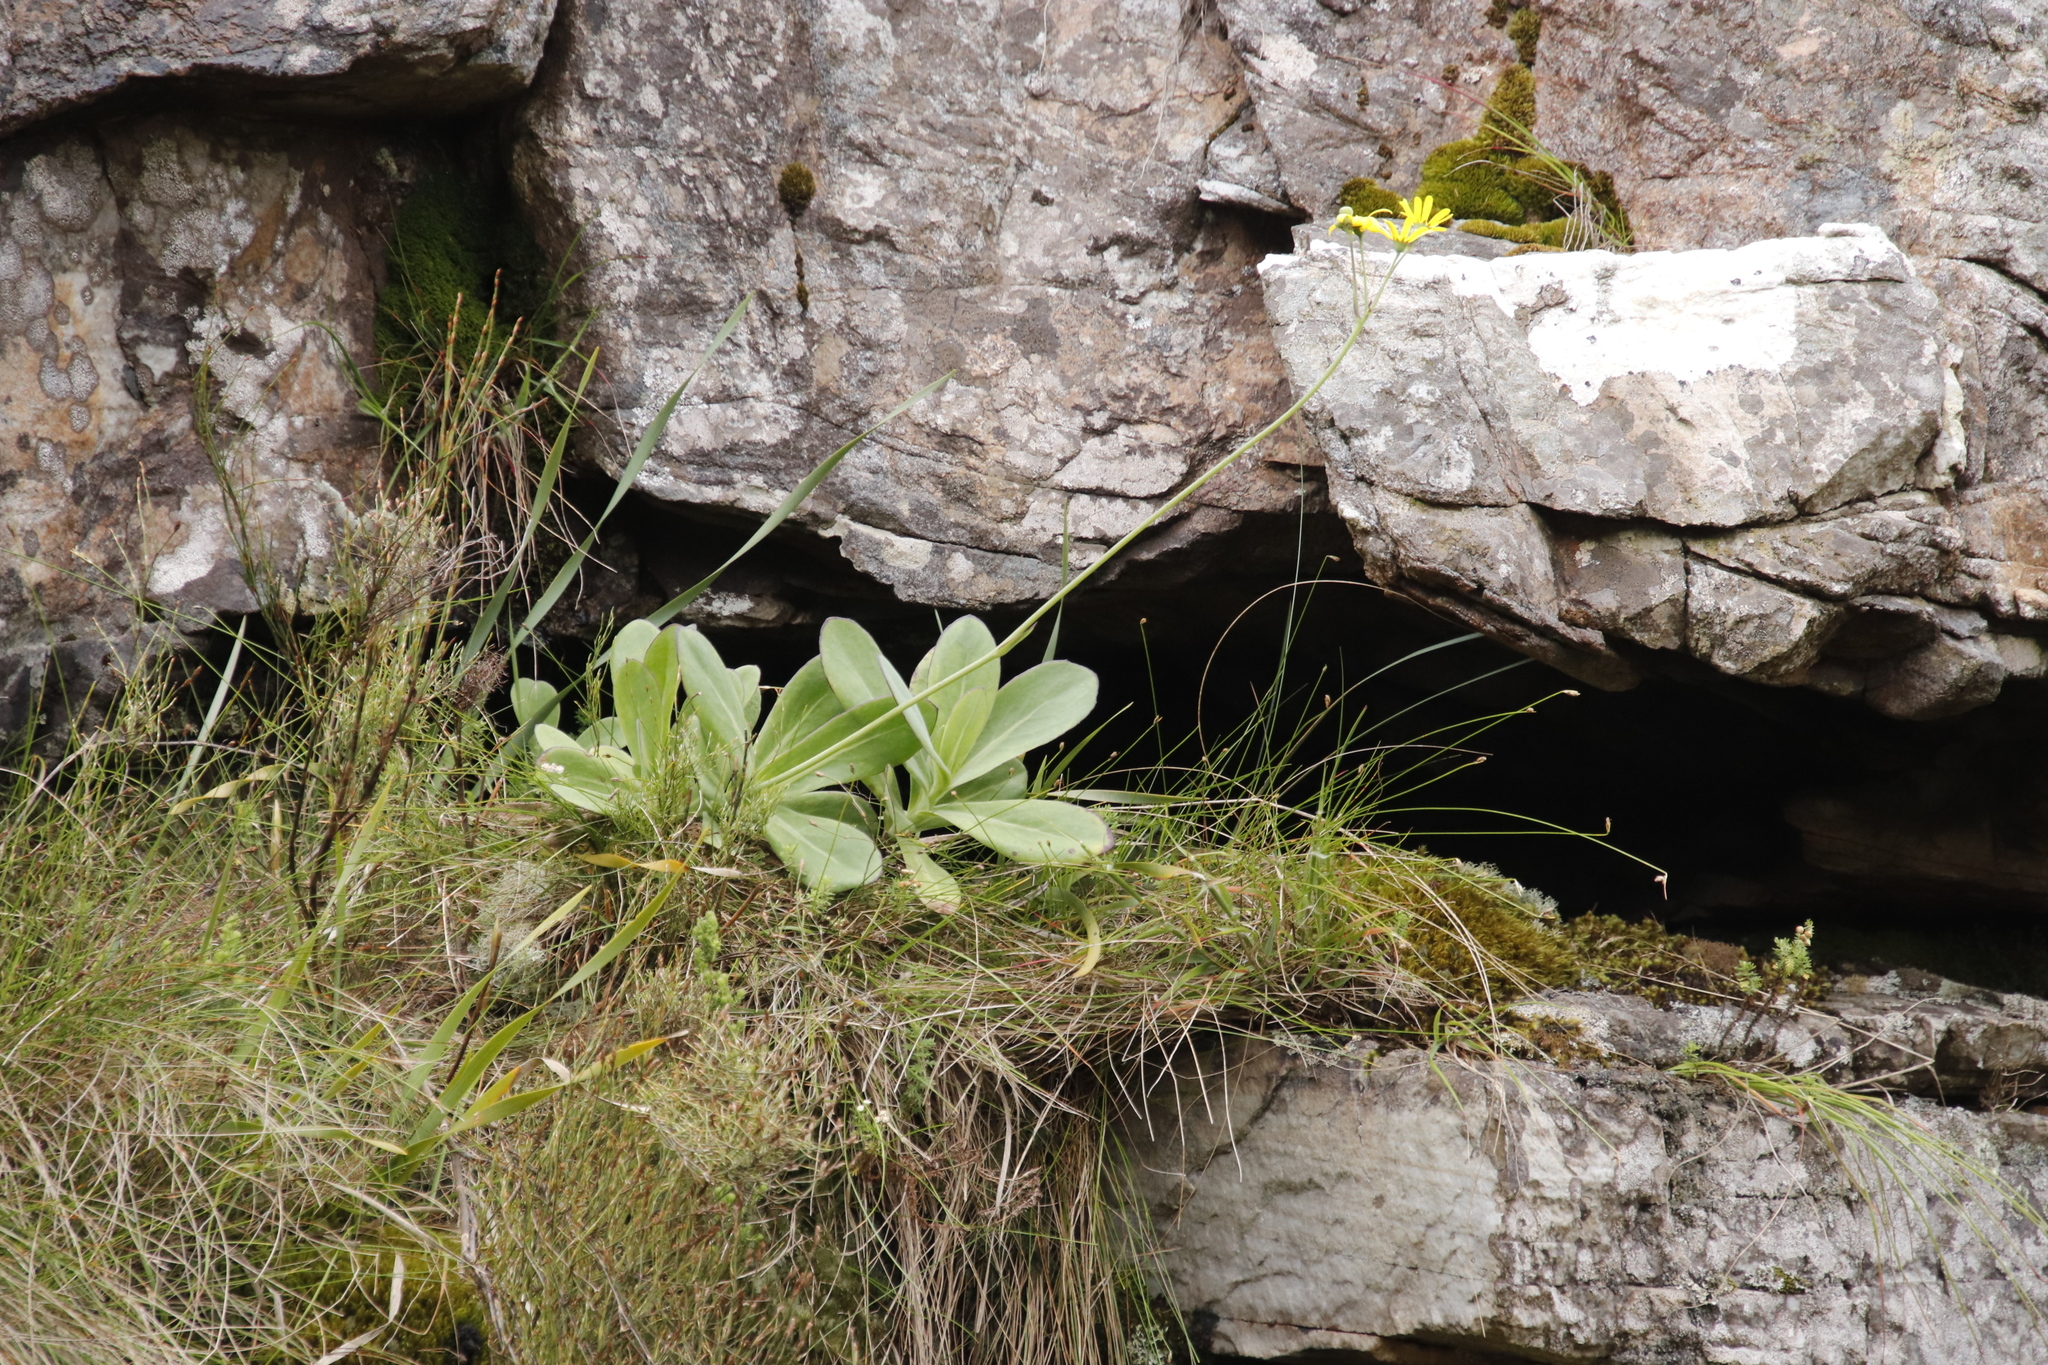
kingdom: Plantae
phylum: Tracheophyta
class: Magnoliopsida
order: Asterales
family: Asteraceae
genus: Othonna
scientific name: Othonna quinquedentata
